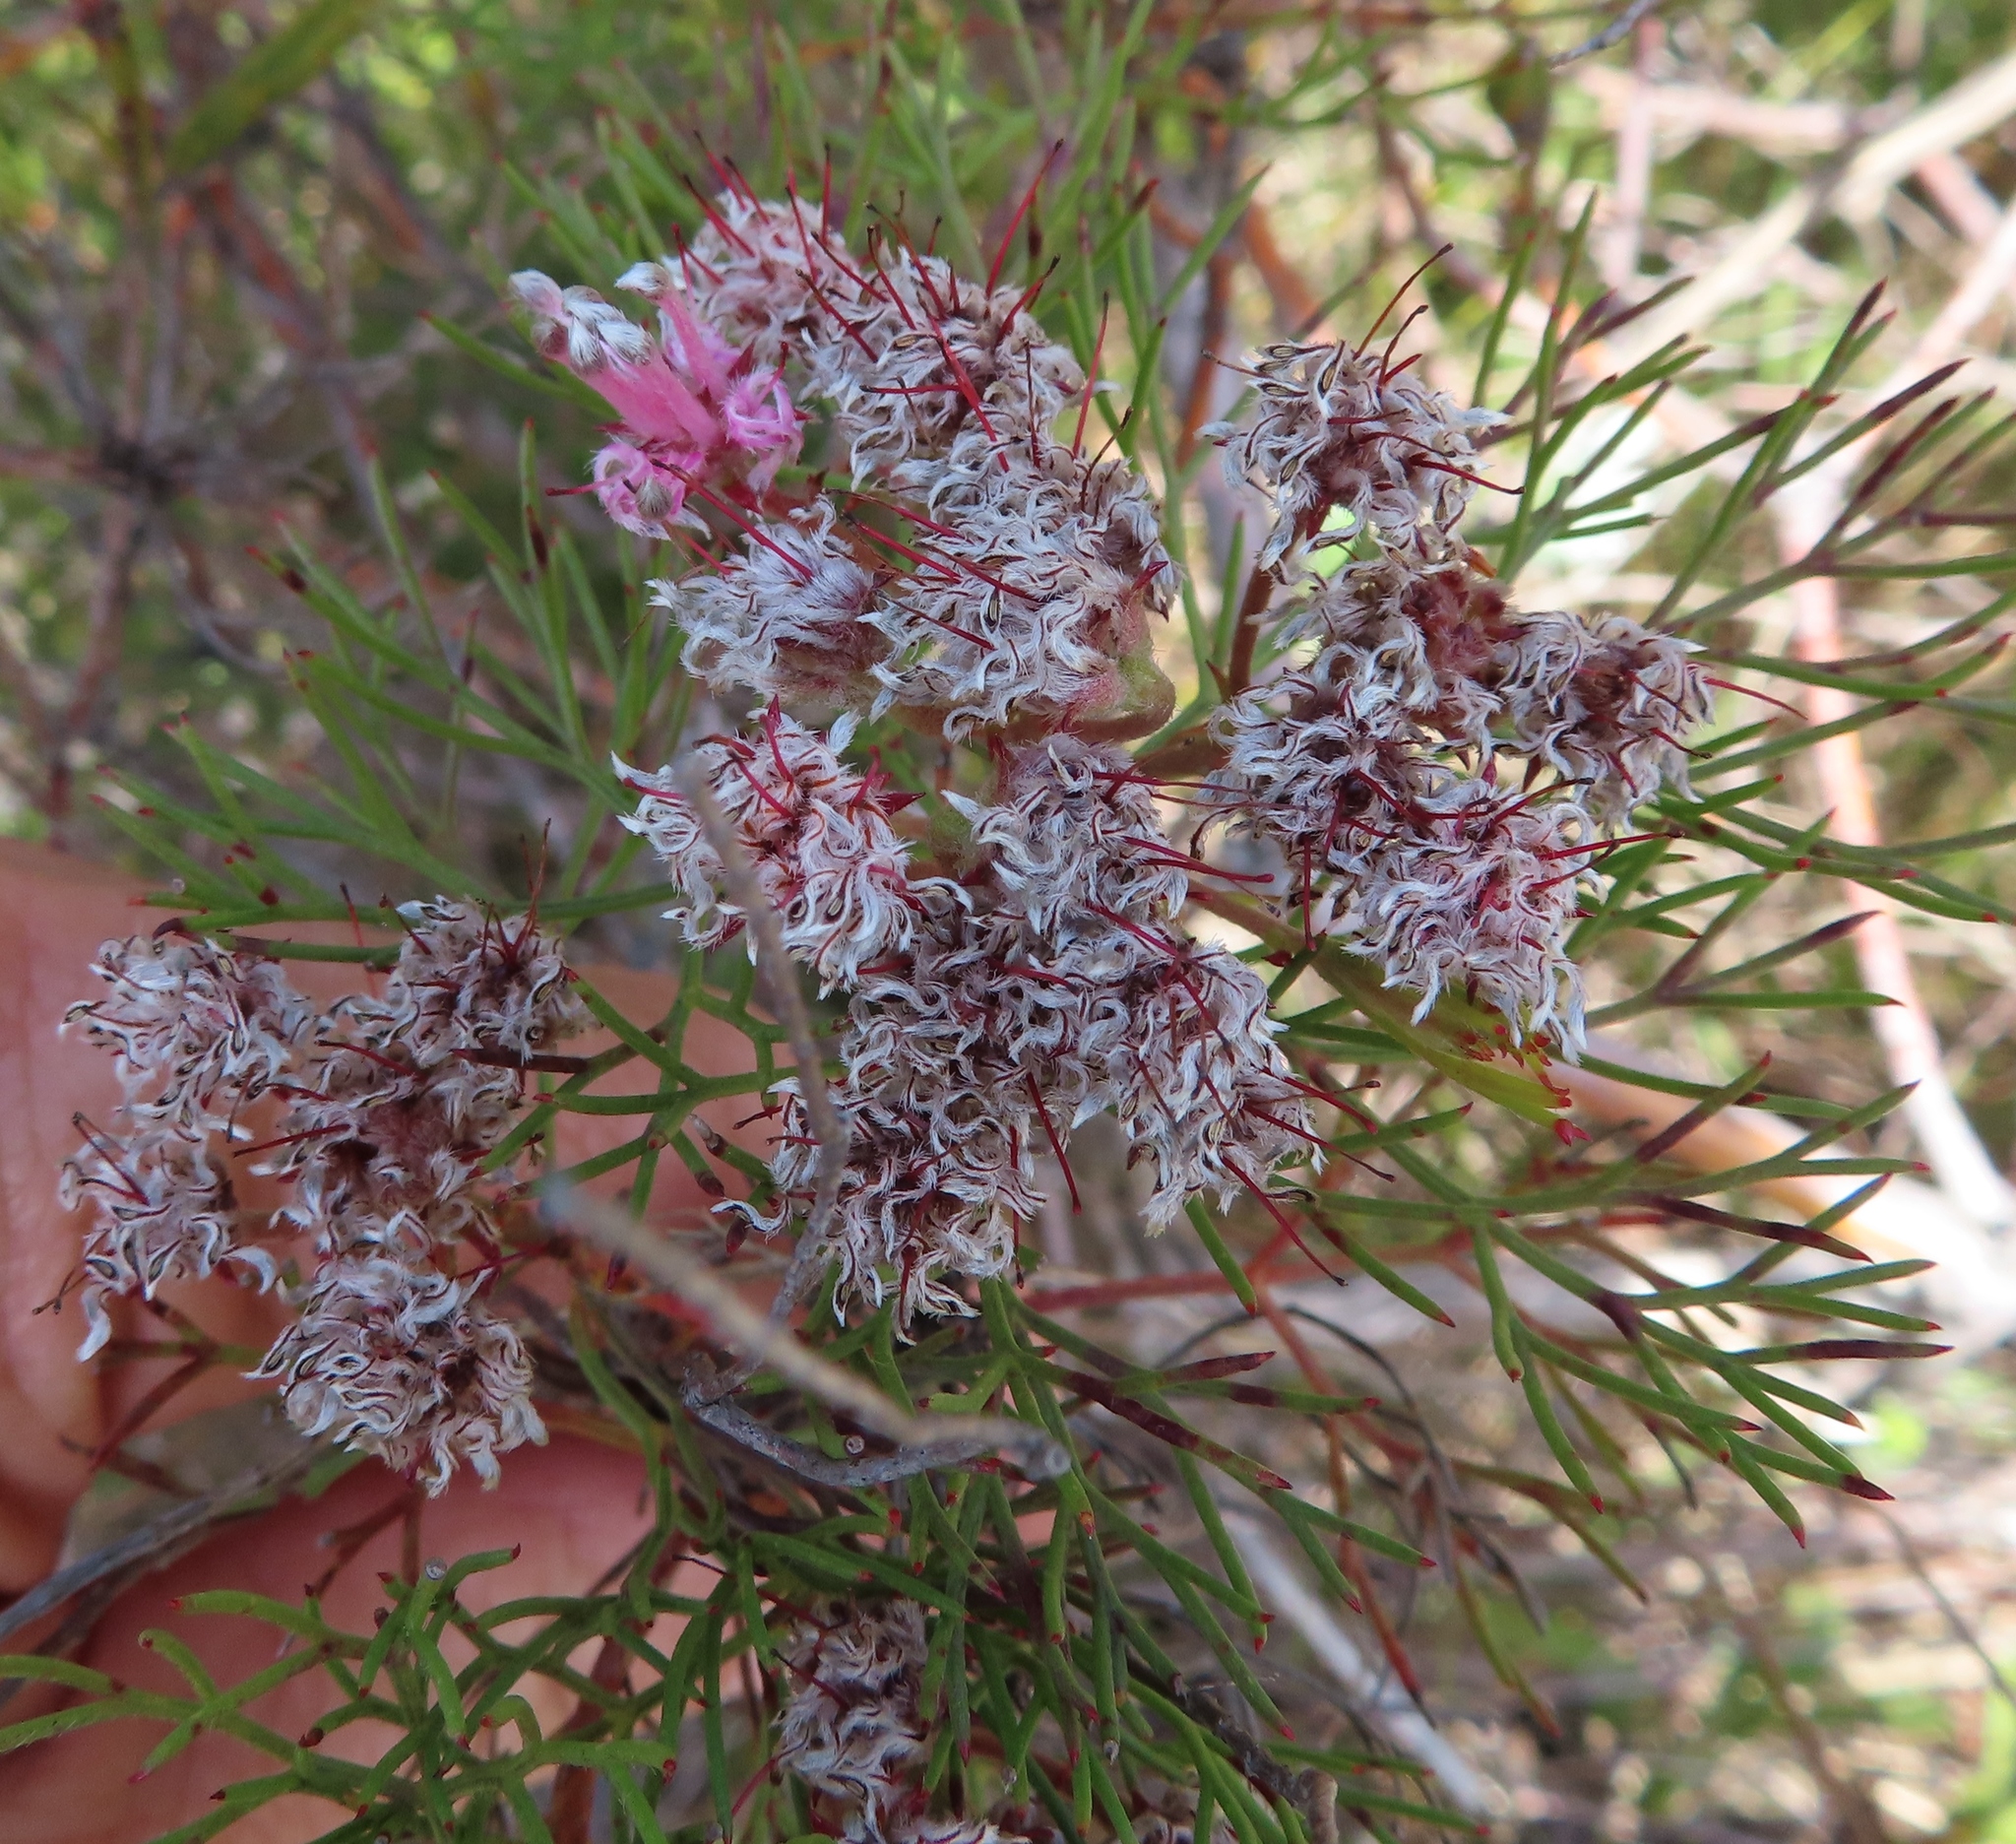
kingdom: Plantae
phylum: Tracheophyta
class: Magnoliopsida
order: Proteales
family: Proteaceae
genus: Serruria
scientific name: Serruria fasciflora
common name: Common pin spiderhead
